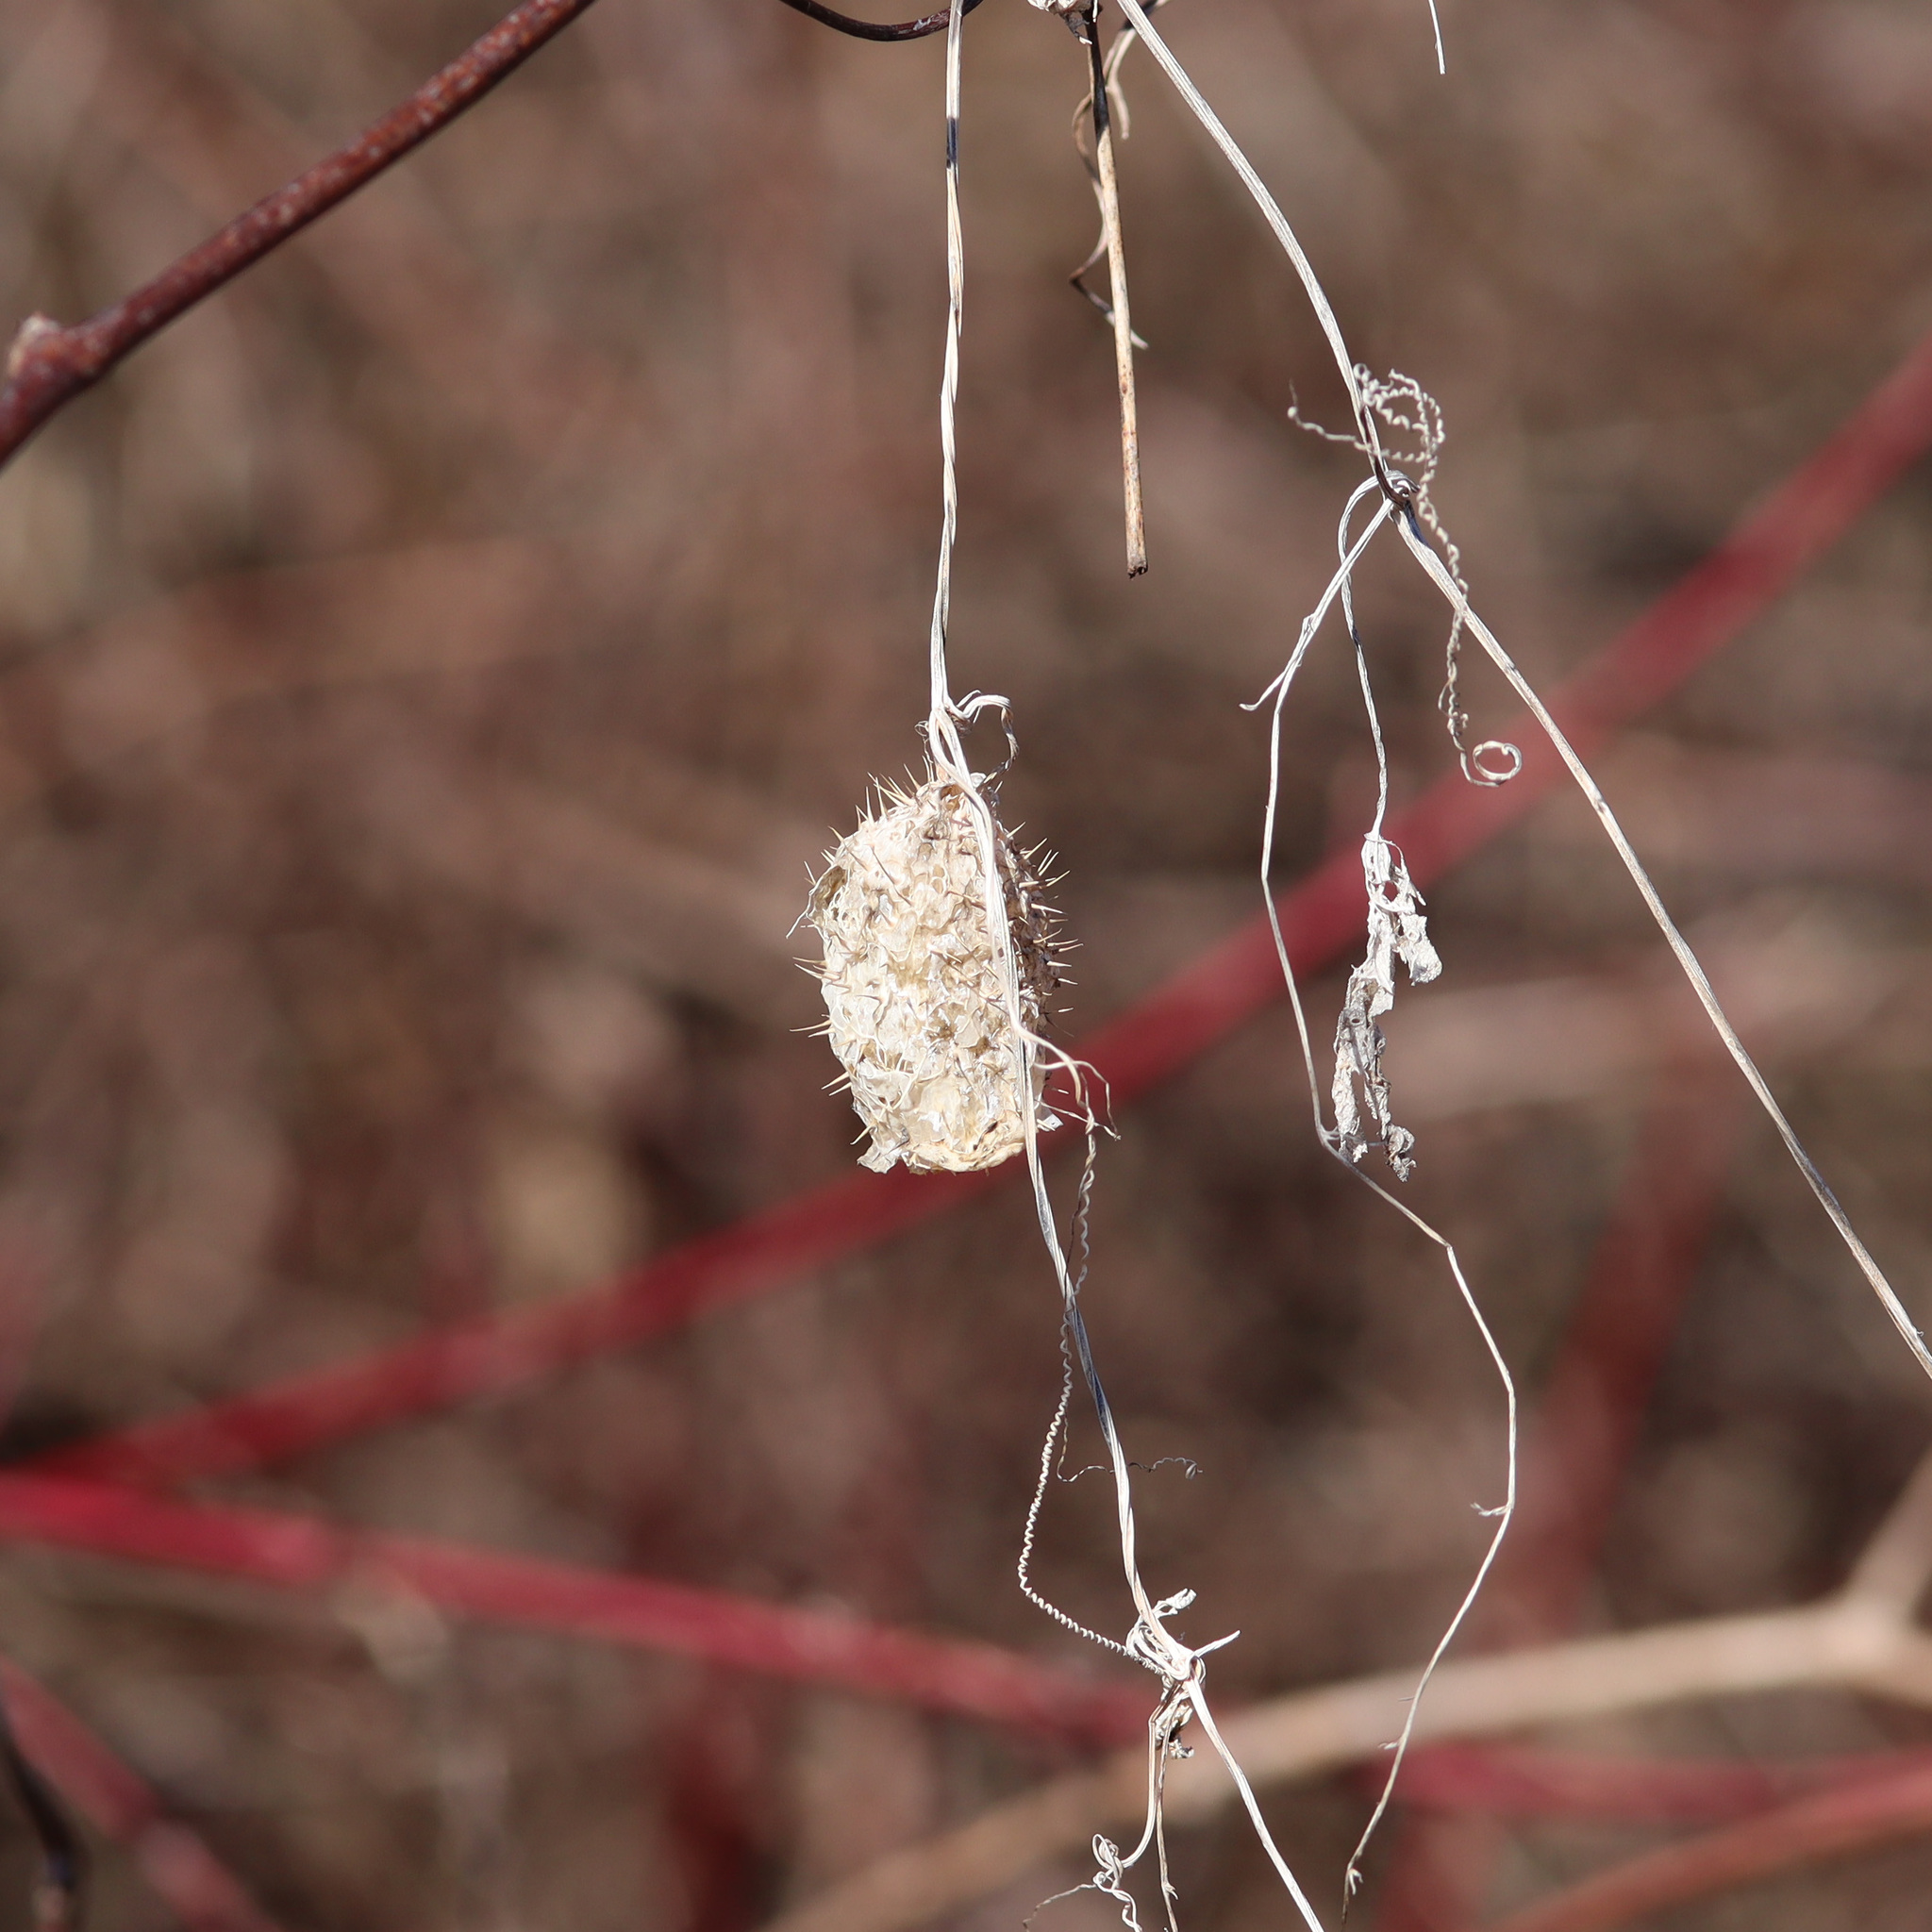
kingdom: Plantae
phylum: Tracheophyta
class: Magnoliopsida
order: Cucurbitales
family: Cucurbitaceae
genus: Echinocystis
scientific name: Echinocystis lobata
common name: Wild cucumber
